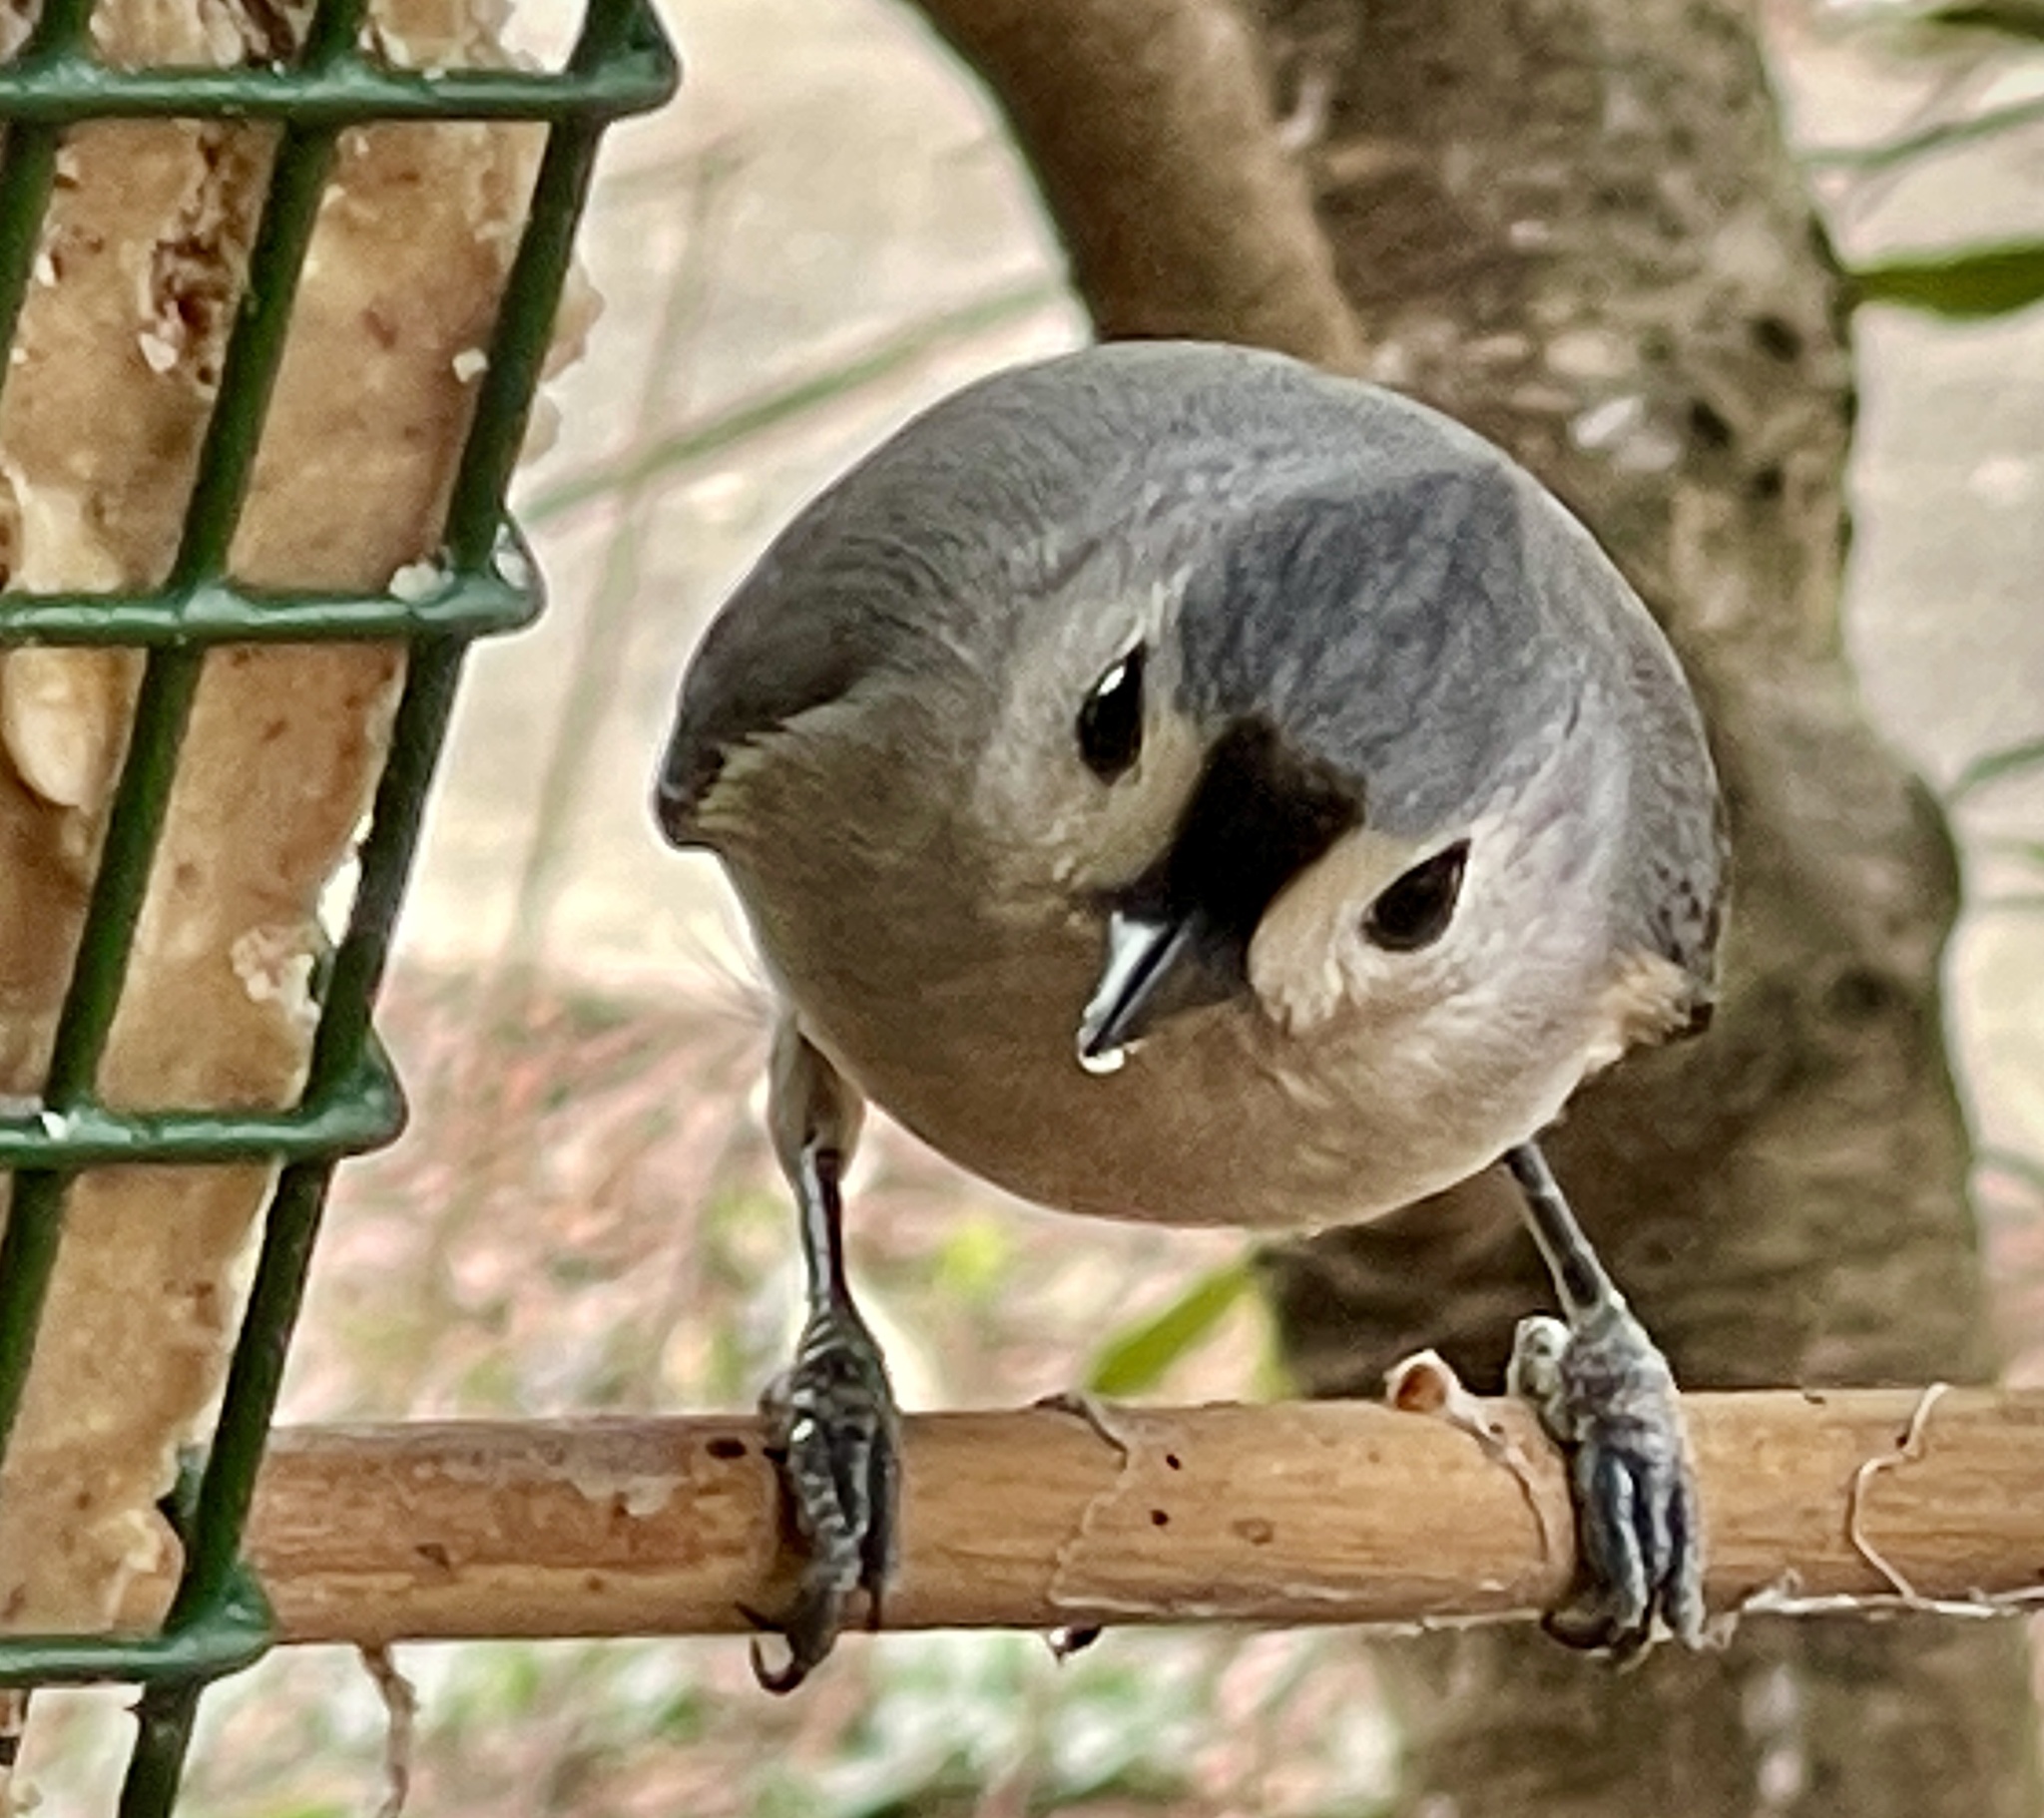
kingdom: Animalia
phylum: Chordata
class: Aves
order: Passeriformes
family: Paridae
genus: Baeolophus
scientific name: Baeolophus bicolor
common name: Tufted titmouse
